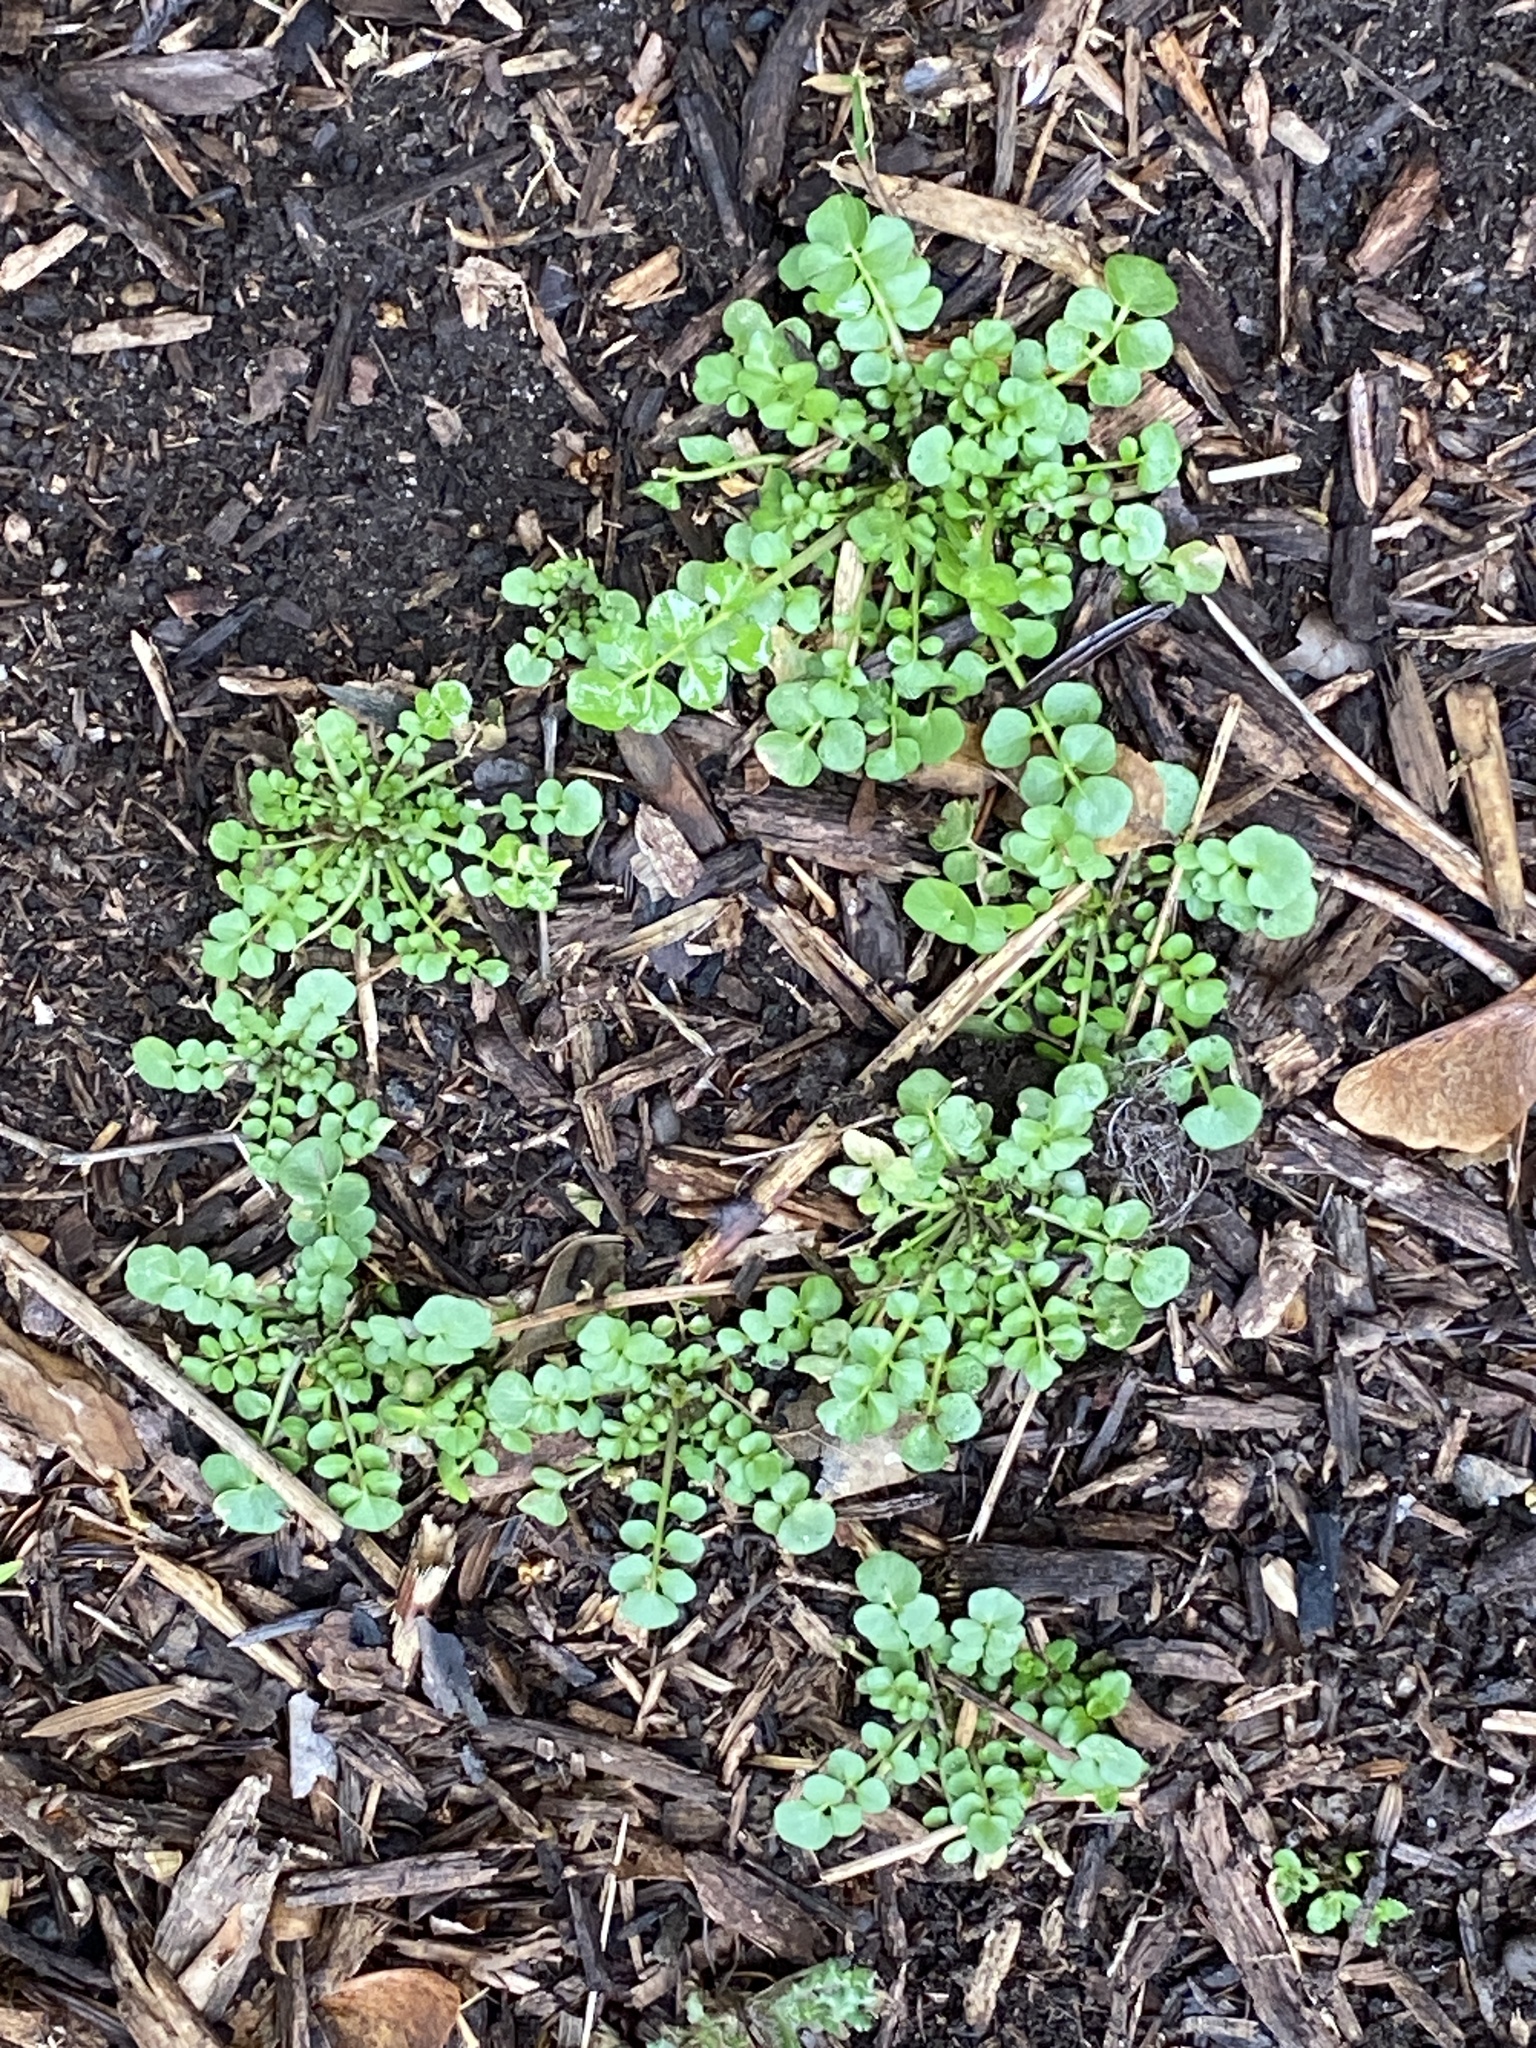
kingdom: Plantae
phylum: Tracheophyta
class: Magnoliopsida
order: Brassicales
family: Brassicaceae
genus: Cardamine
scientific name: Cardamine hirsuta
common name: Hairy bittercress
